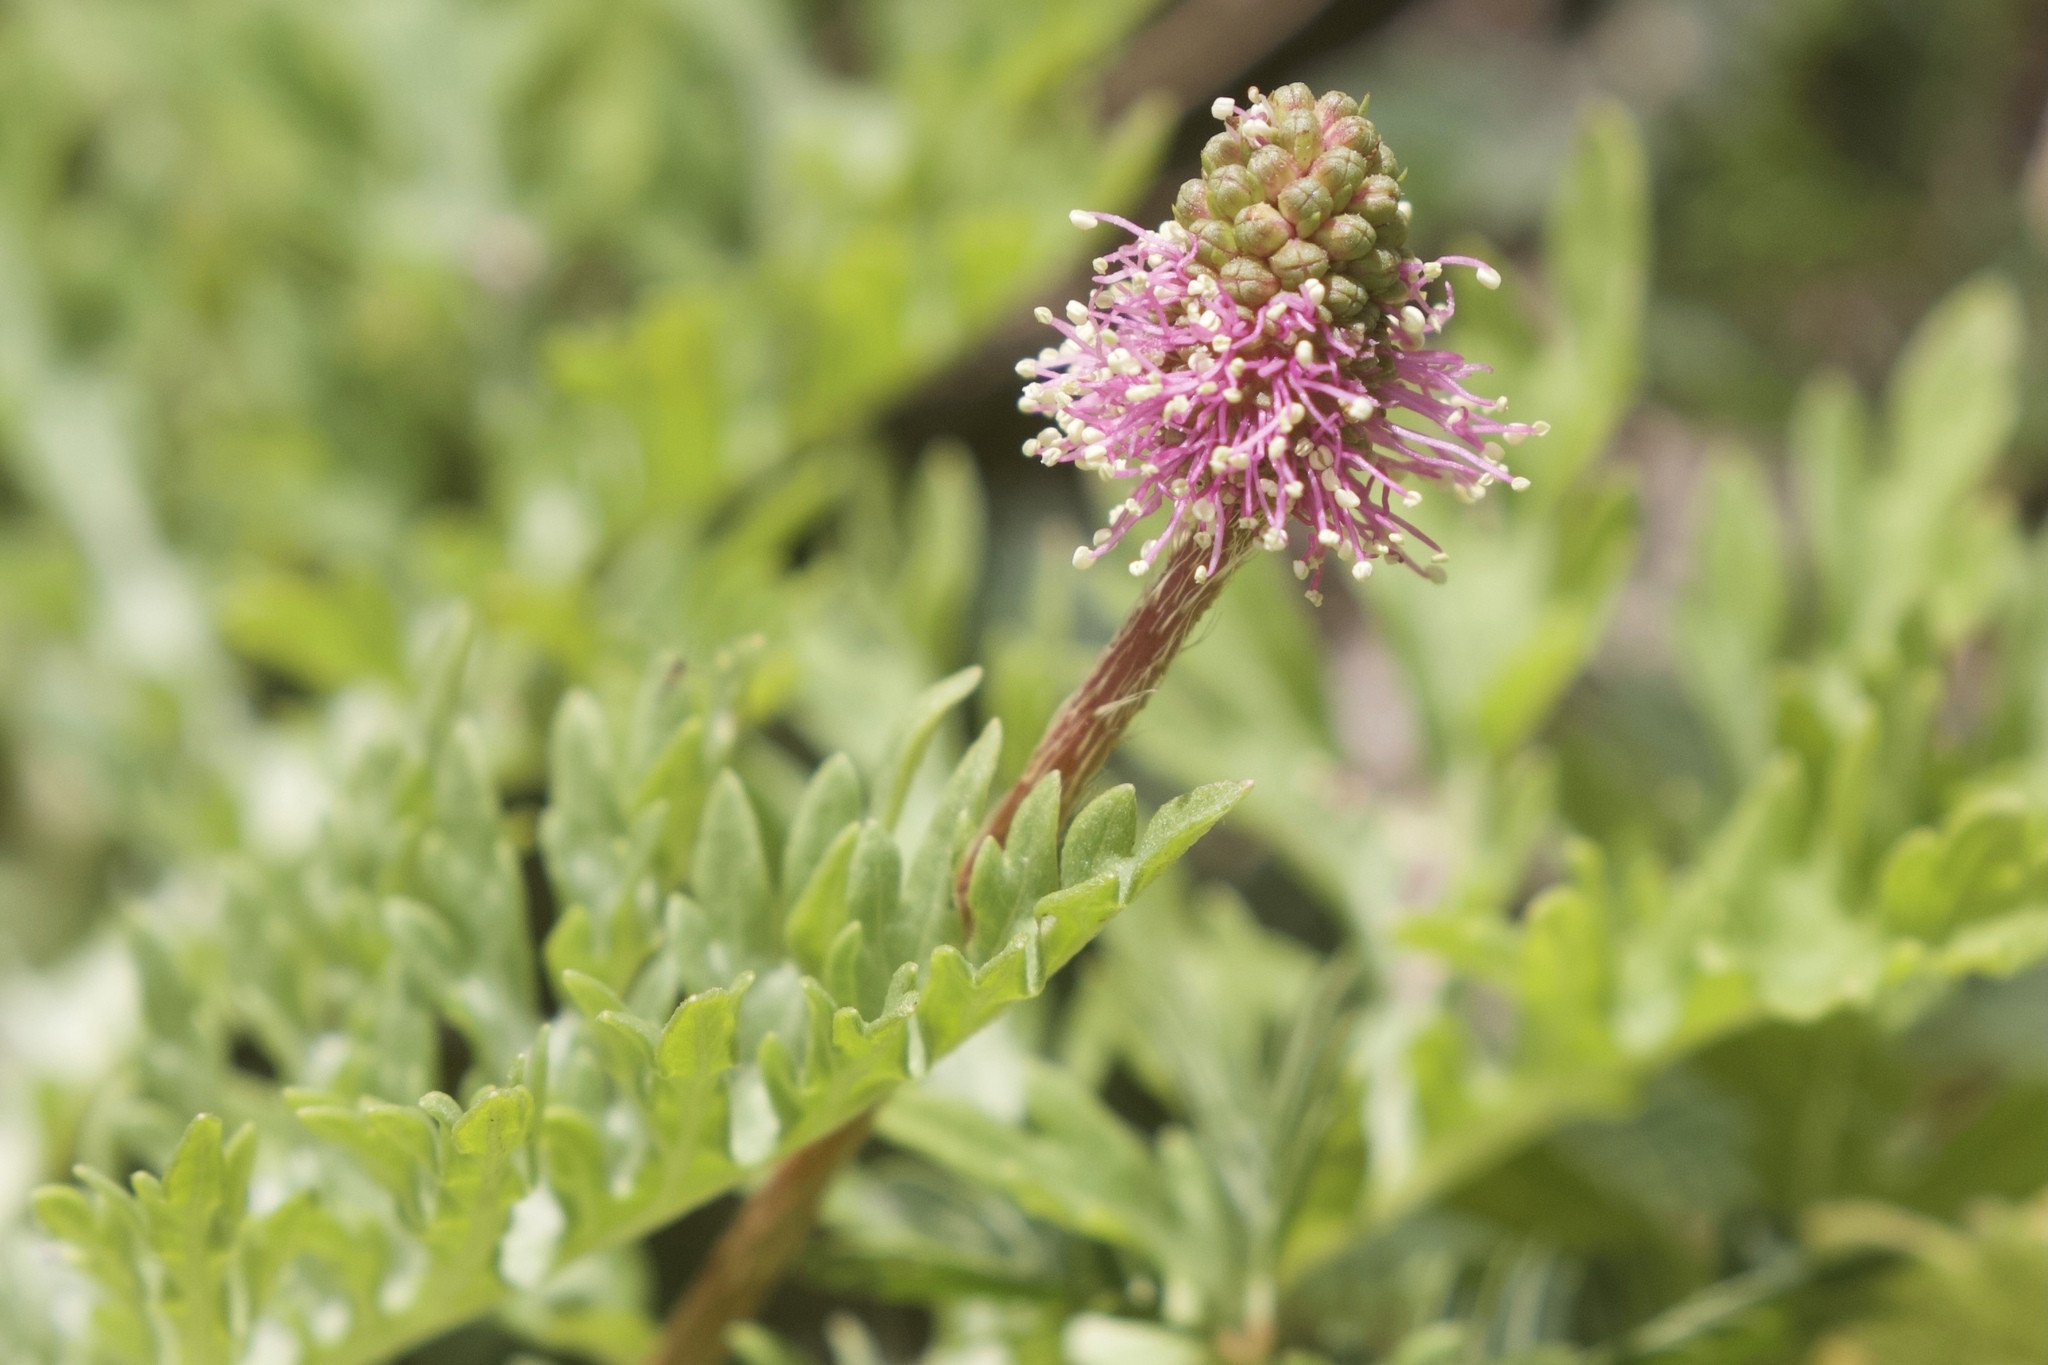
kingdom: Plantae
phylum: Tracheophyta
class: Magnoliopsida
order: Fabales
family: Fabaceae
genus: Mimosa
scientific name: Mimosa strigillosa
